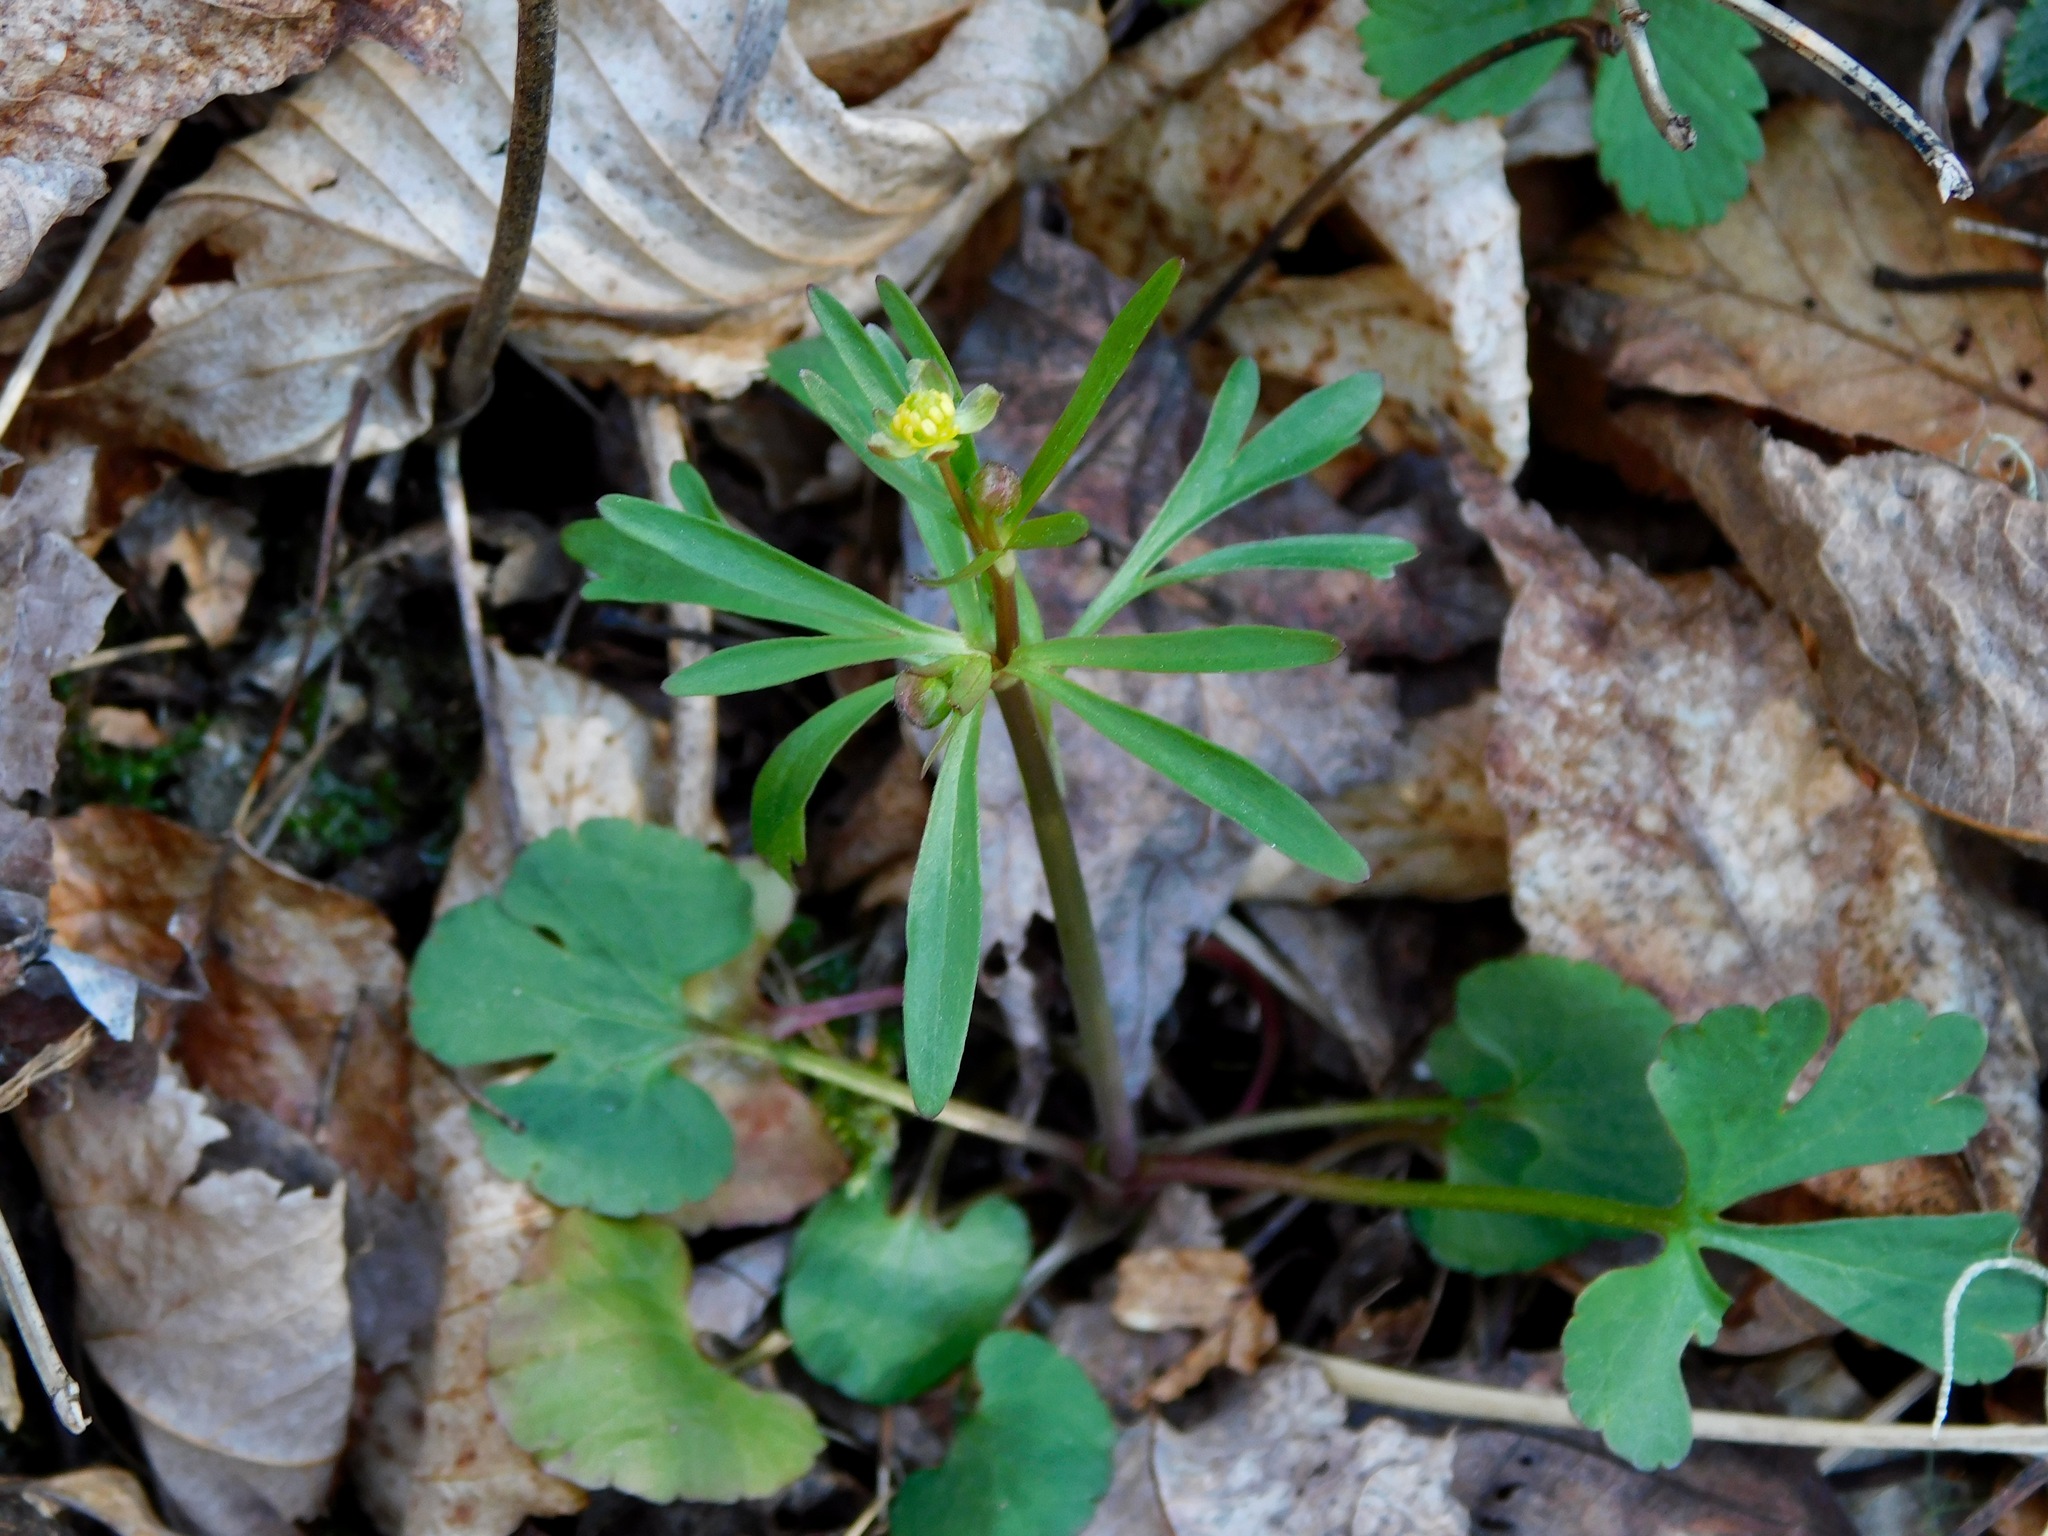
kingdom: Plantae
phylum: Tracheophyta
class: Magnoliopsida
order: Ranunculales
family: Ranunculaceae
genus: Ranunculus
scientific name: Ranunculus abortivus
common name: Early wood buttercup
